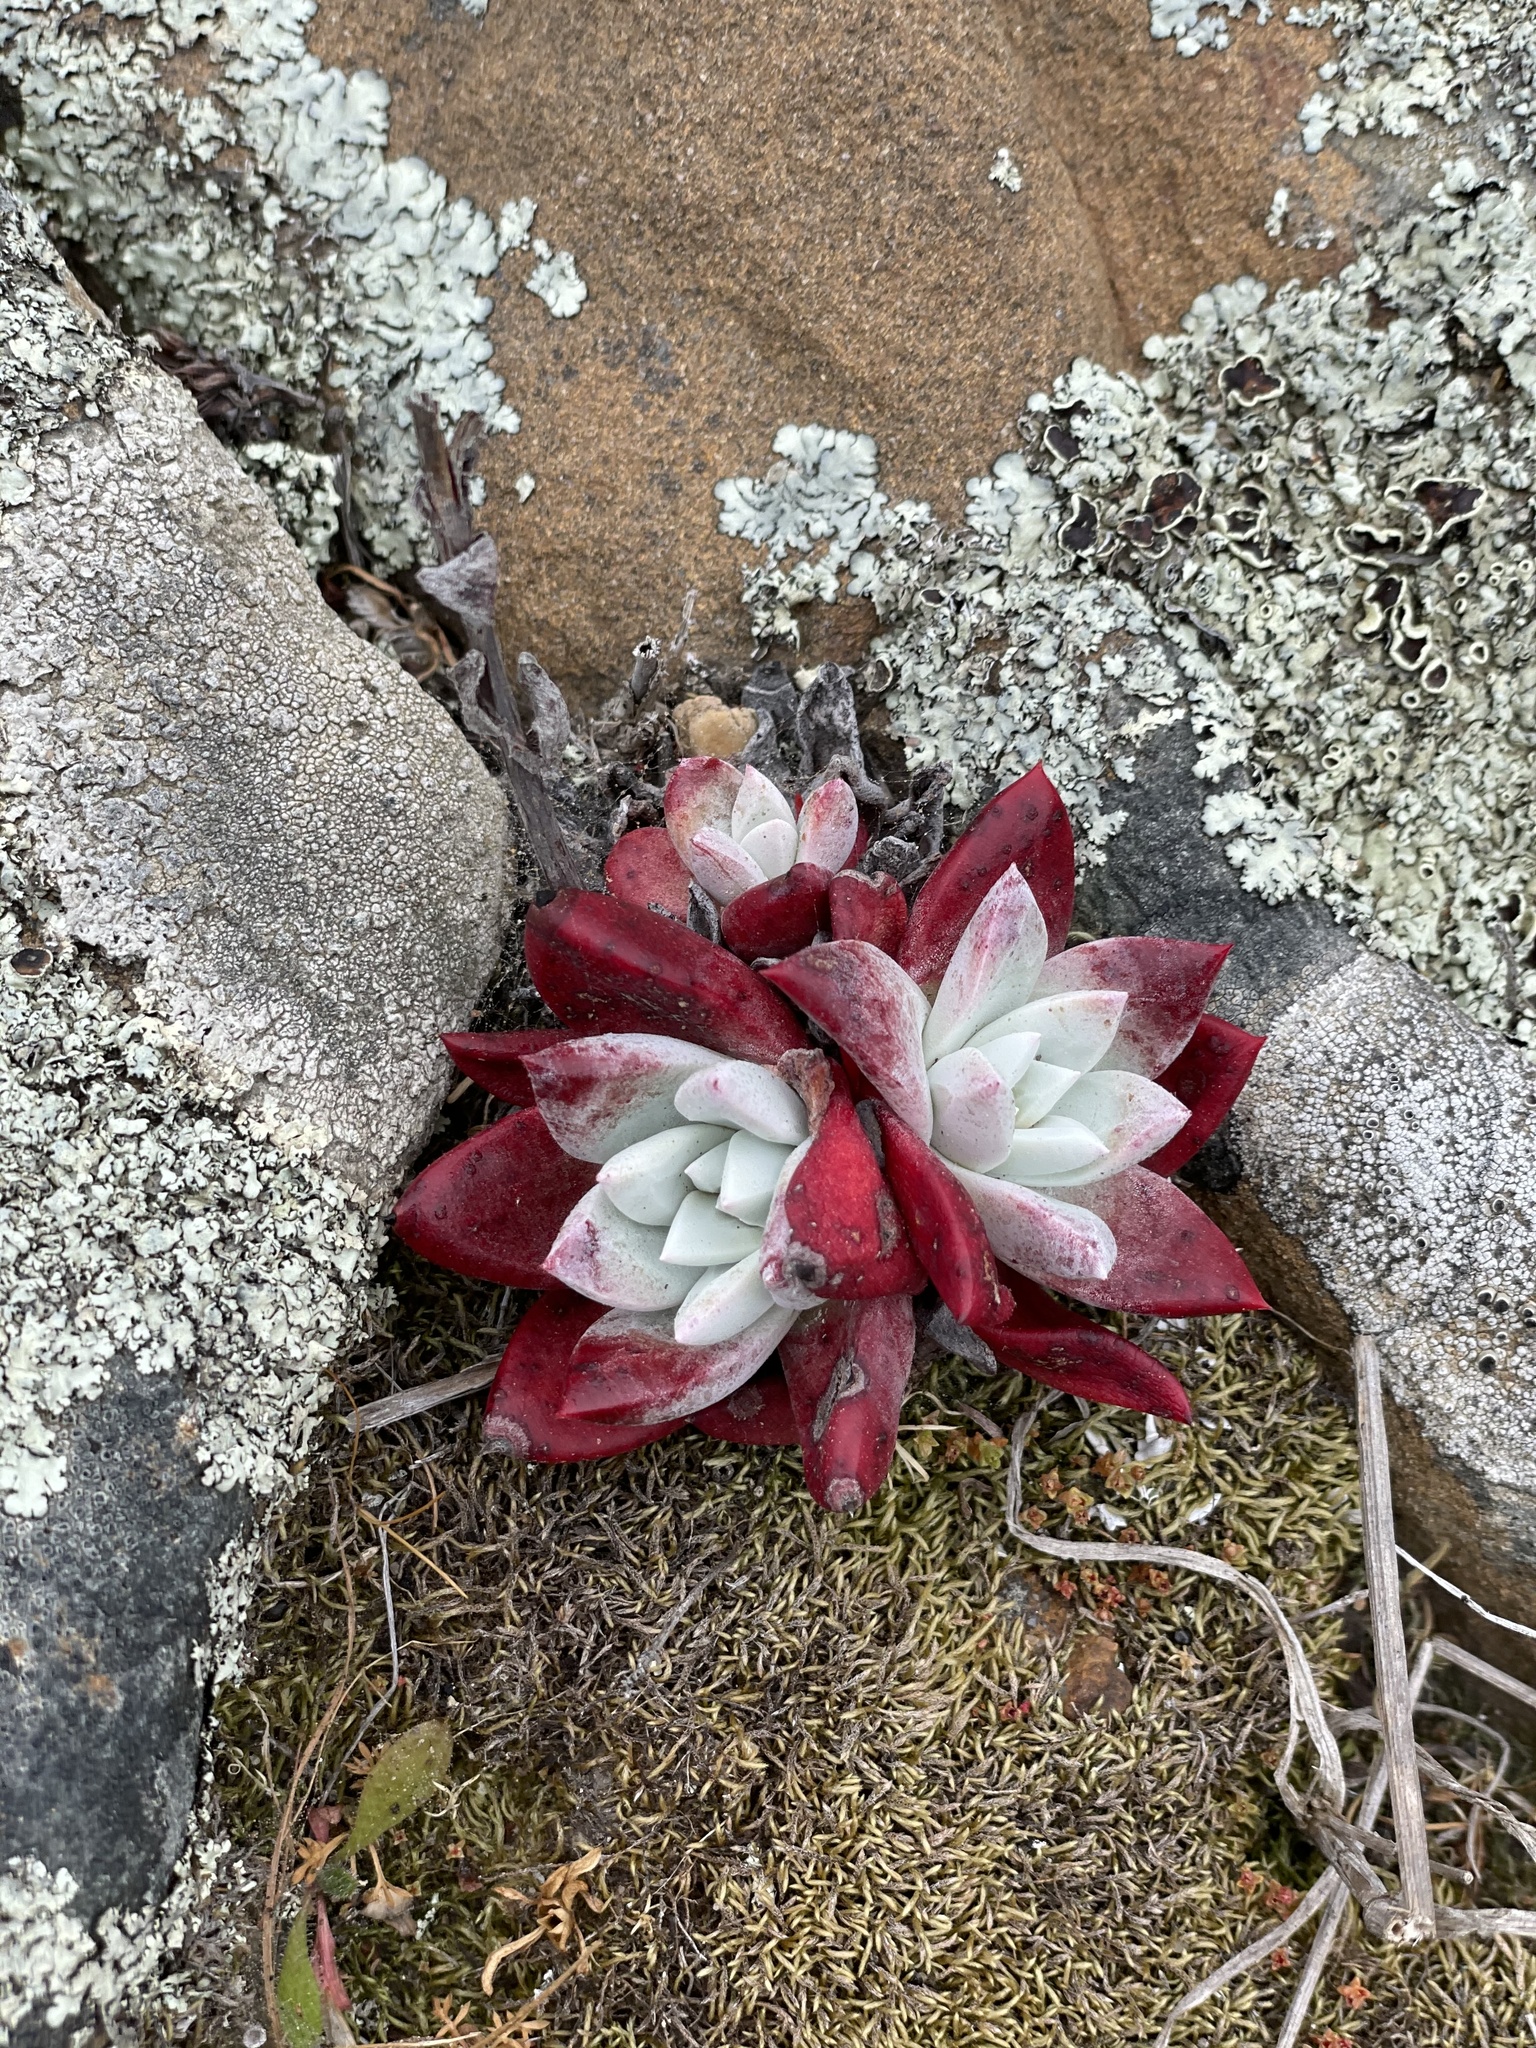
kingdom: Plantae
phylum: Tracheophyta
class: Magnoliopsida
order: Saxifragales
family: Crassulaceae
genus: Dudleya
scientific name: Dudleya farinosa
